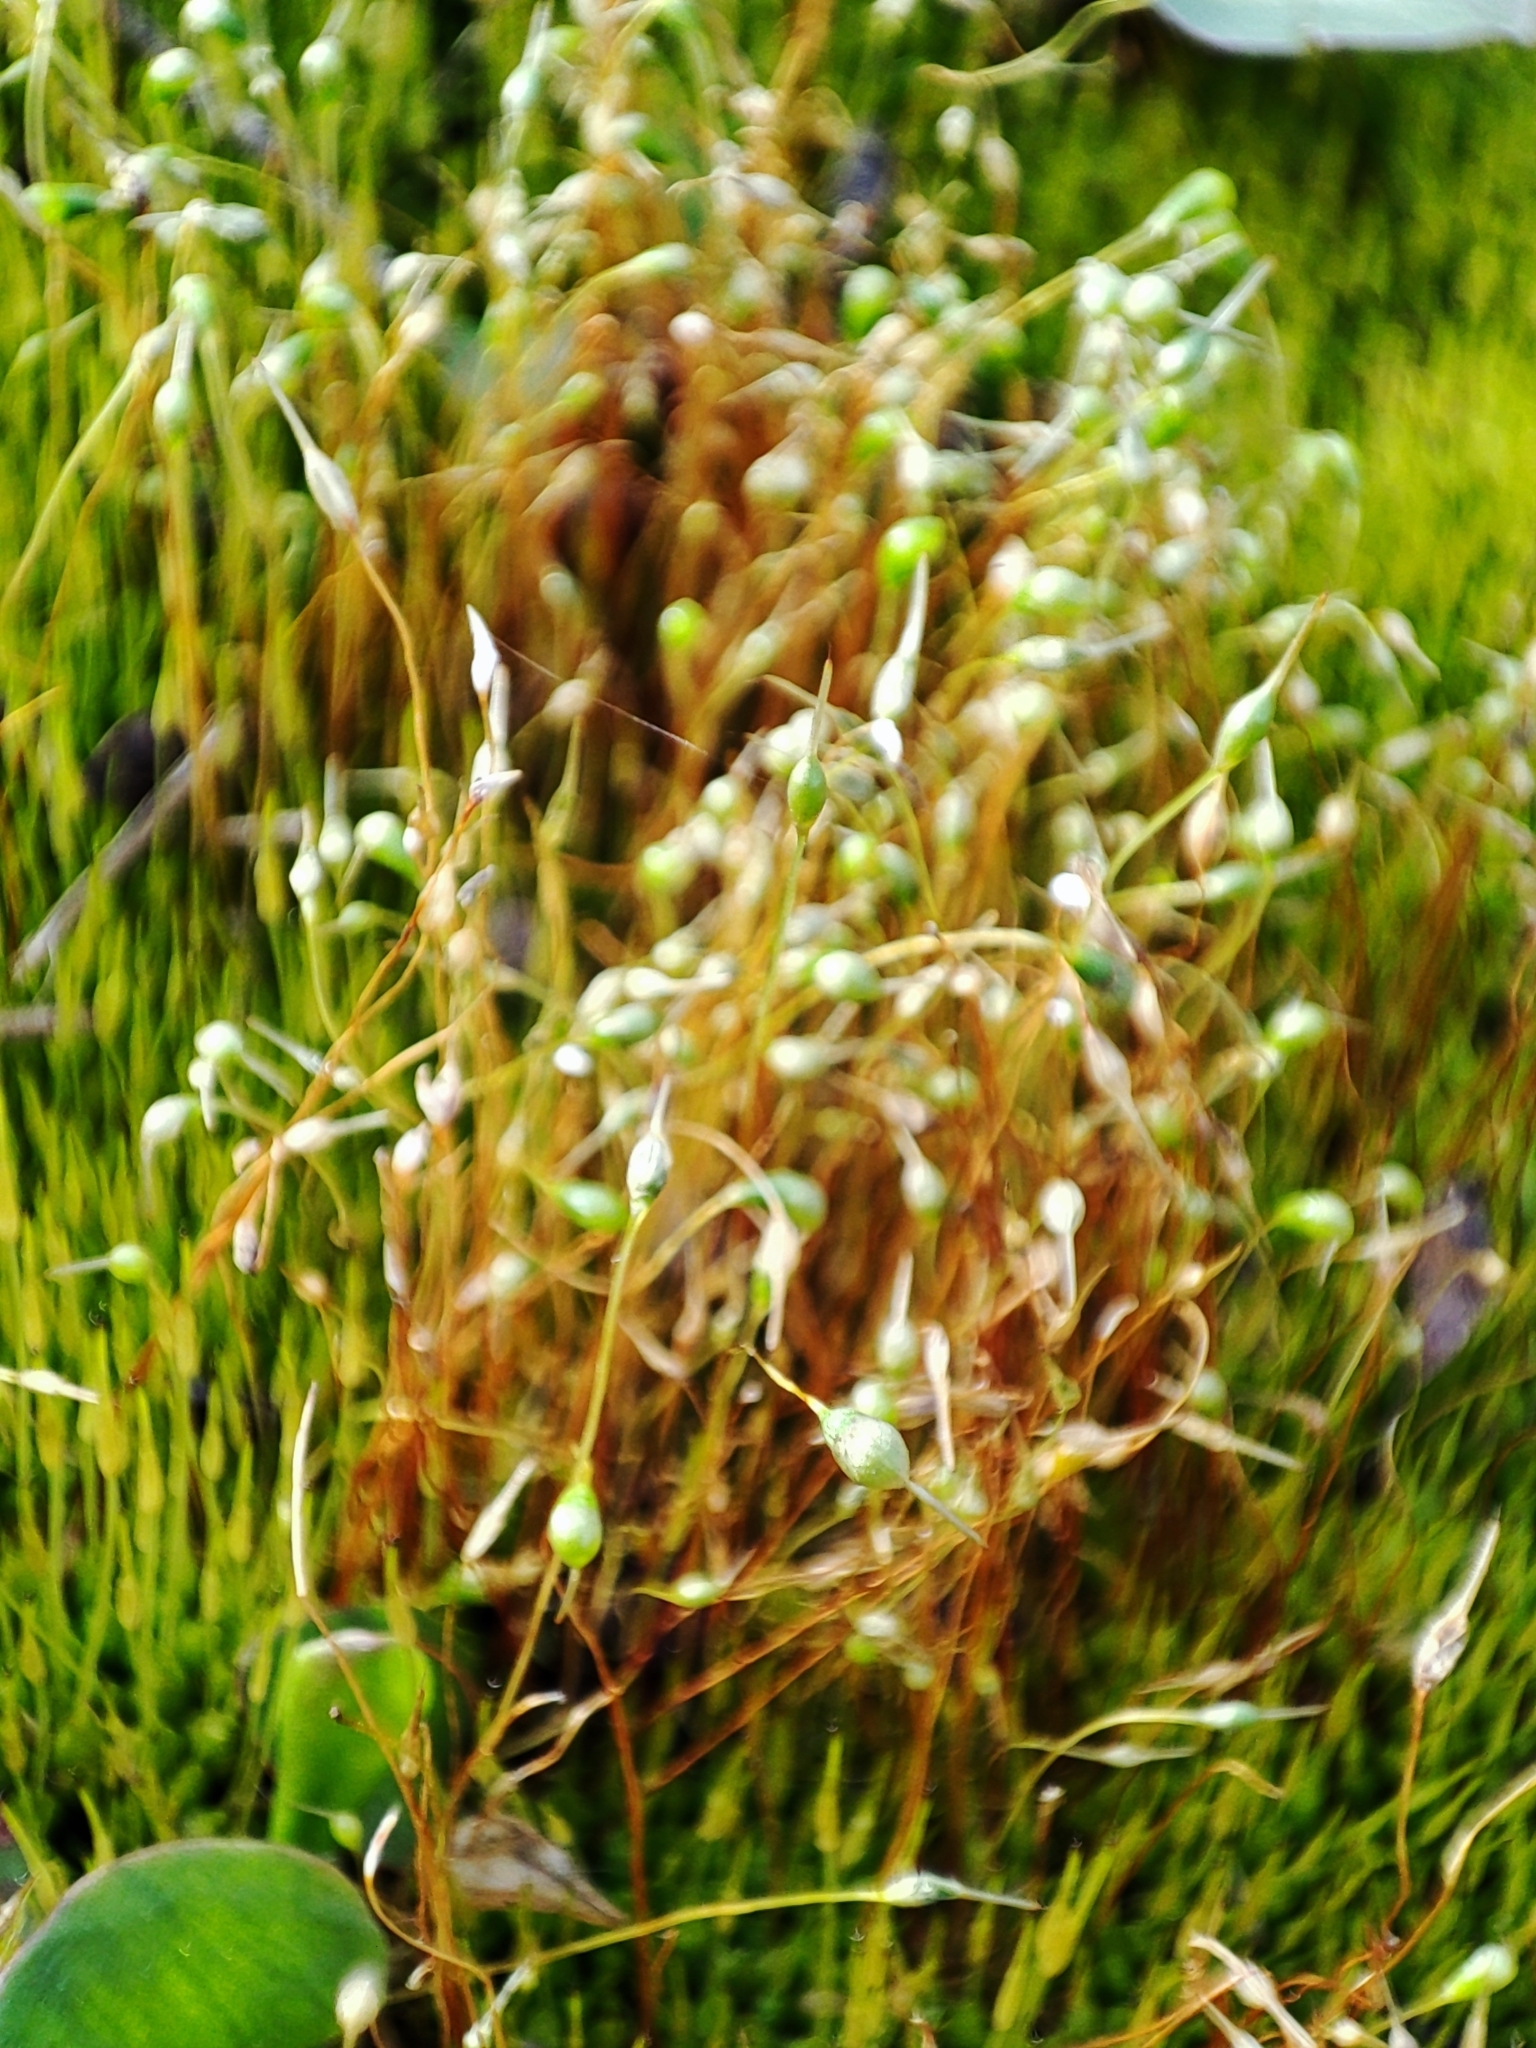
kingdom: Plantae
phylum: Bryophyta
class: Bryopsida
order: Funariales
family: Funariaceae
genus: Funaria
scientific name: Funaria hygrometrica
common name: Common cord moss
